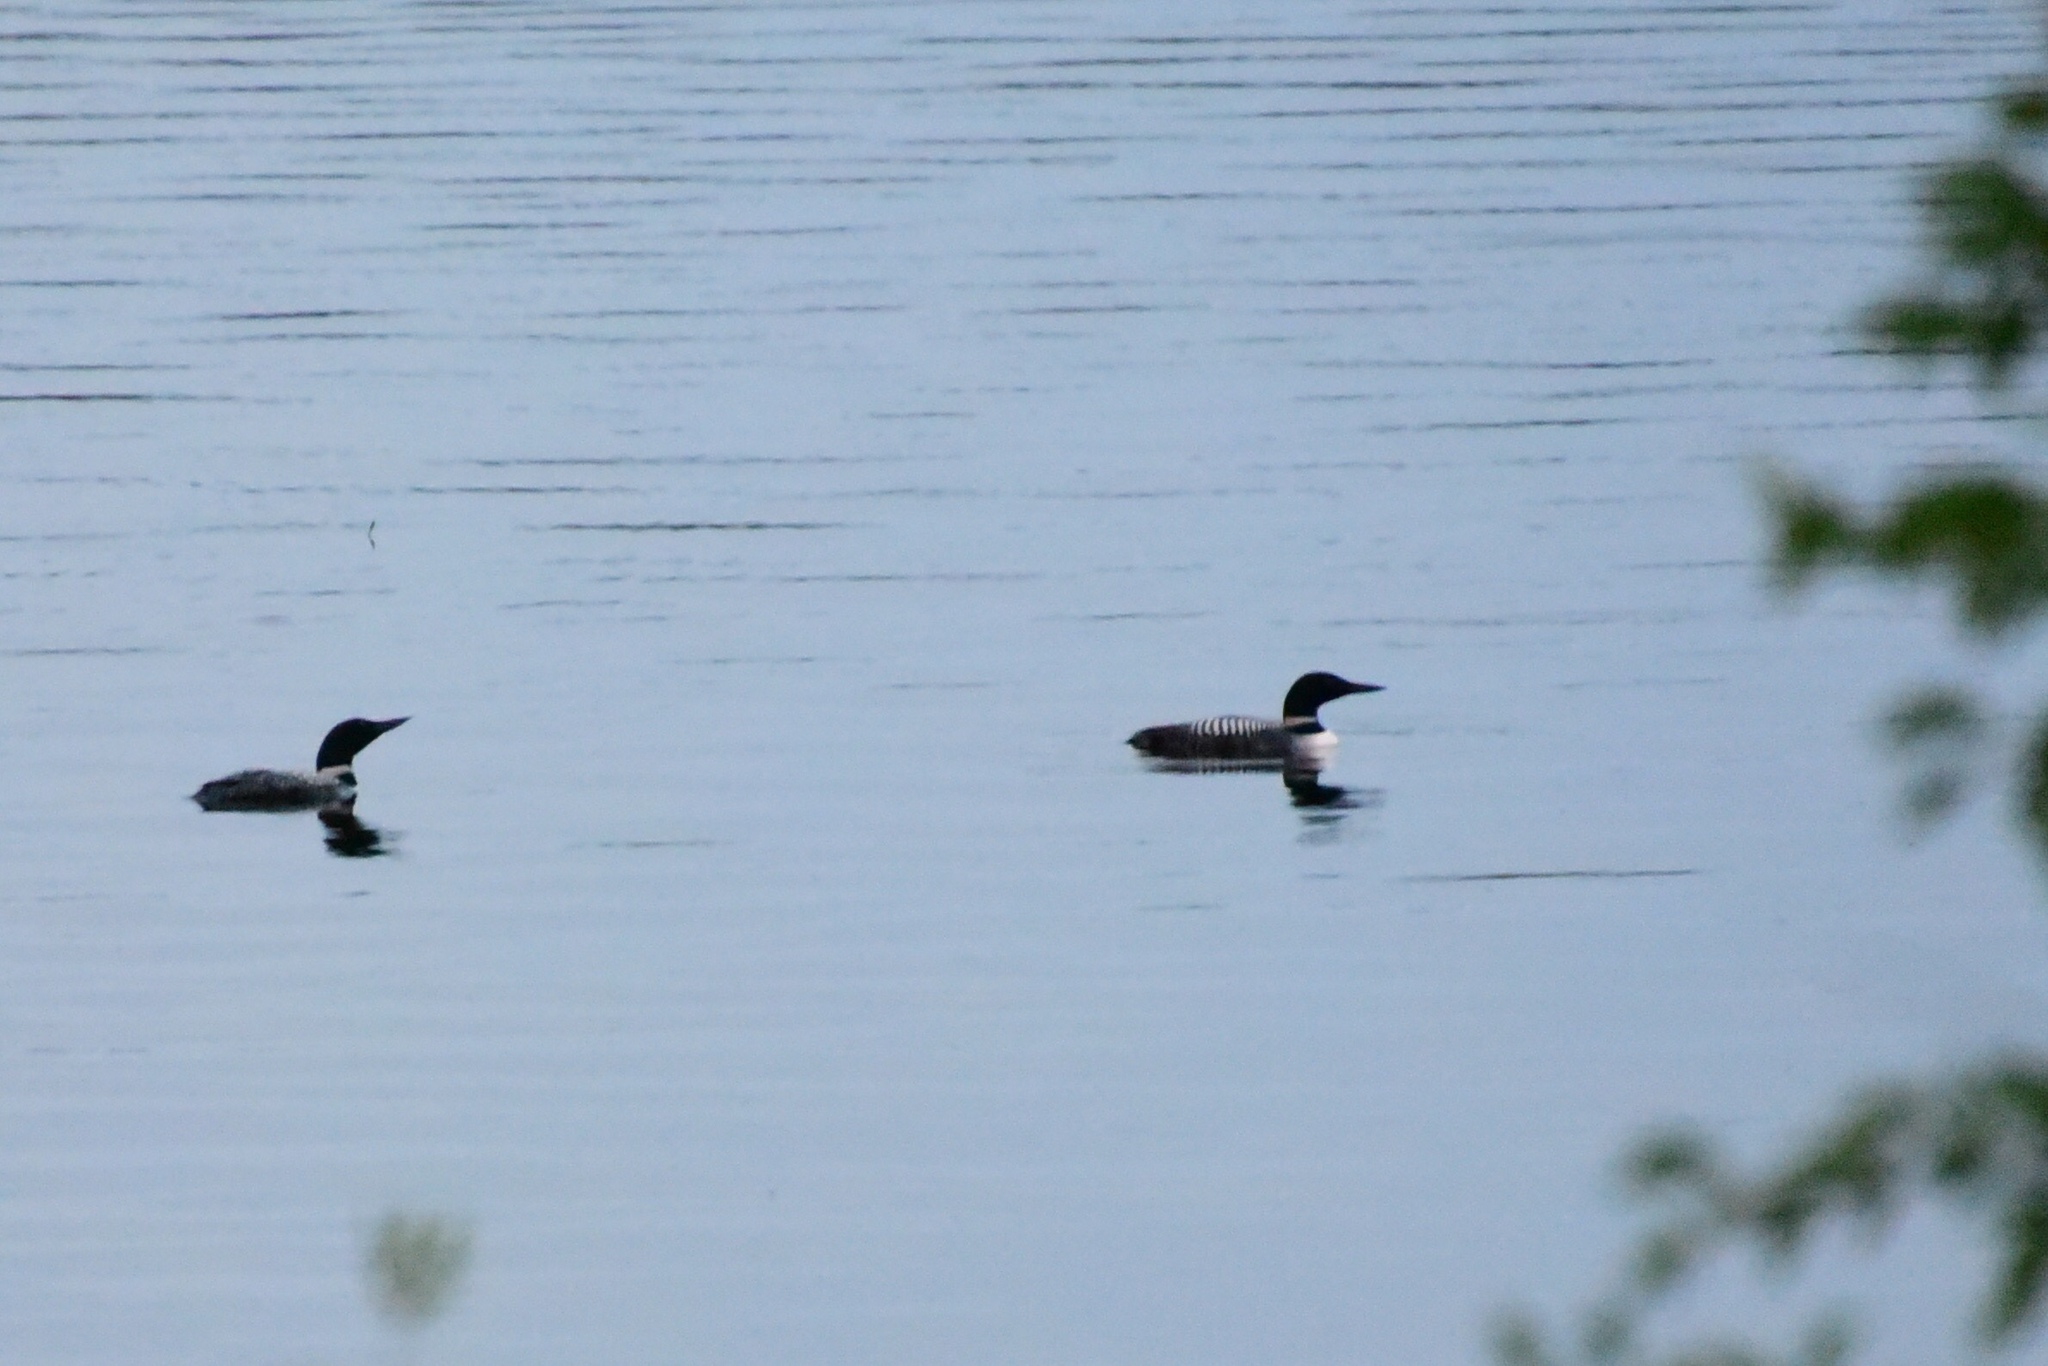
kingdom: Animalia
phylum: Chordata
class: Aves
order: Gaviiformes
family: Gaviidae
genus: Gavia
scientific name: Gavia immer
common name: Common loon
